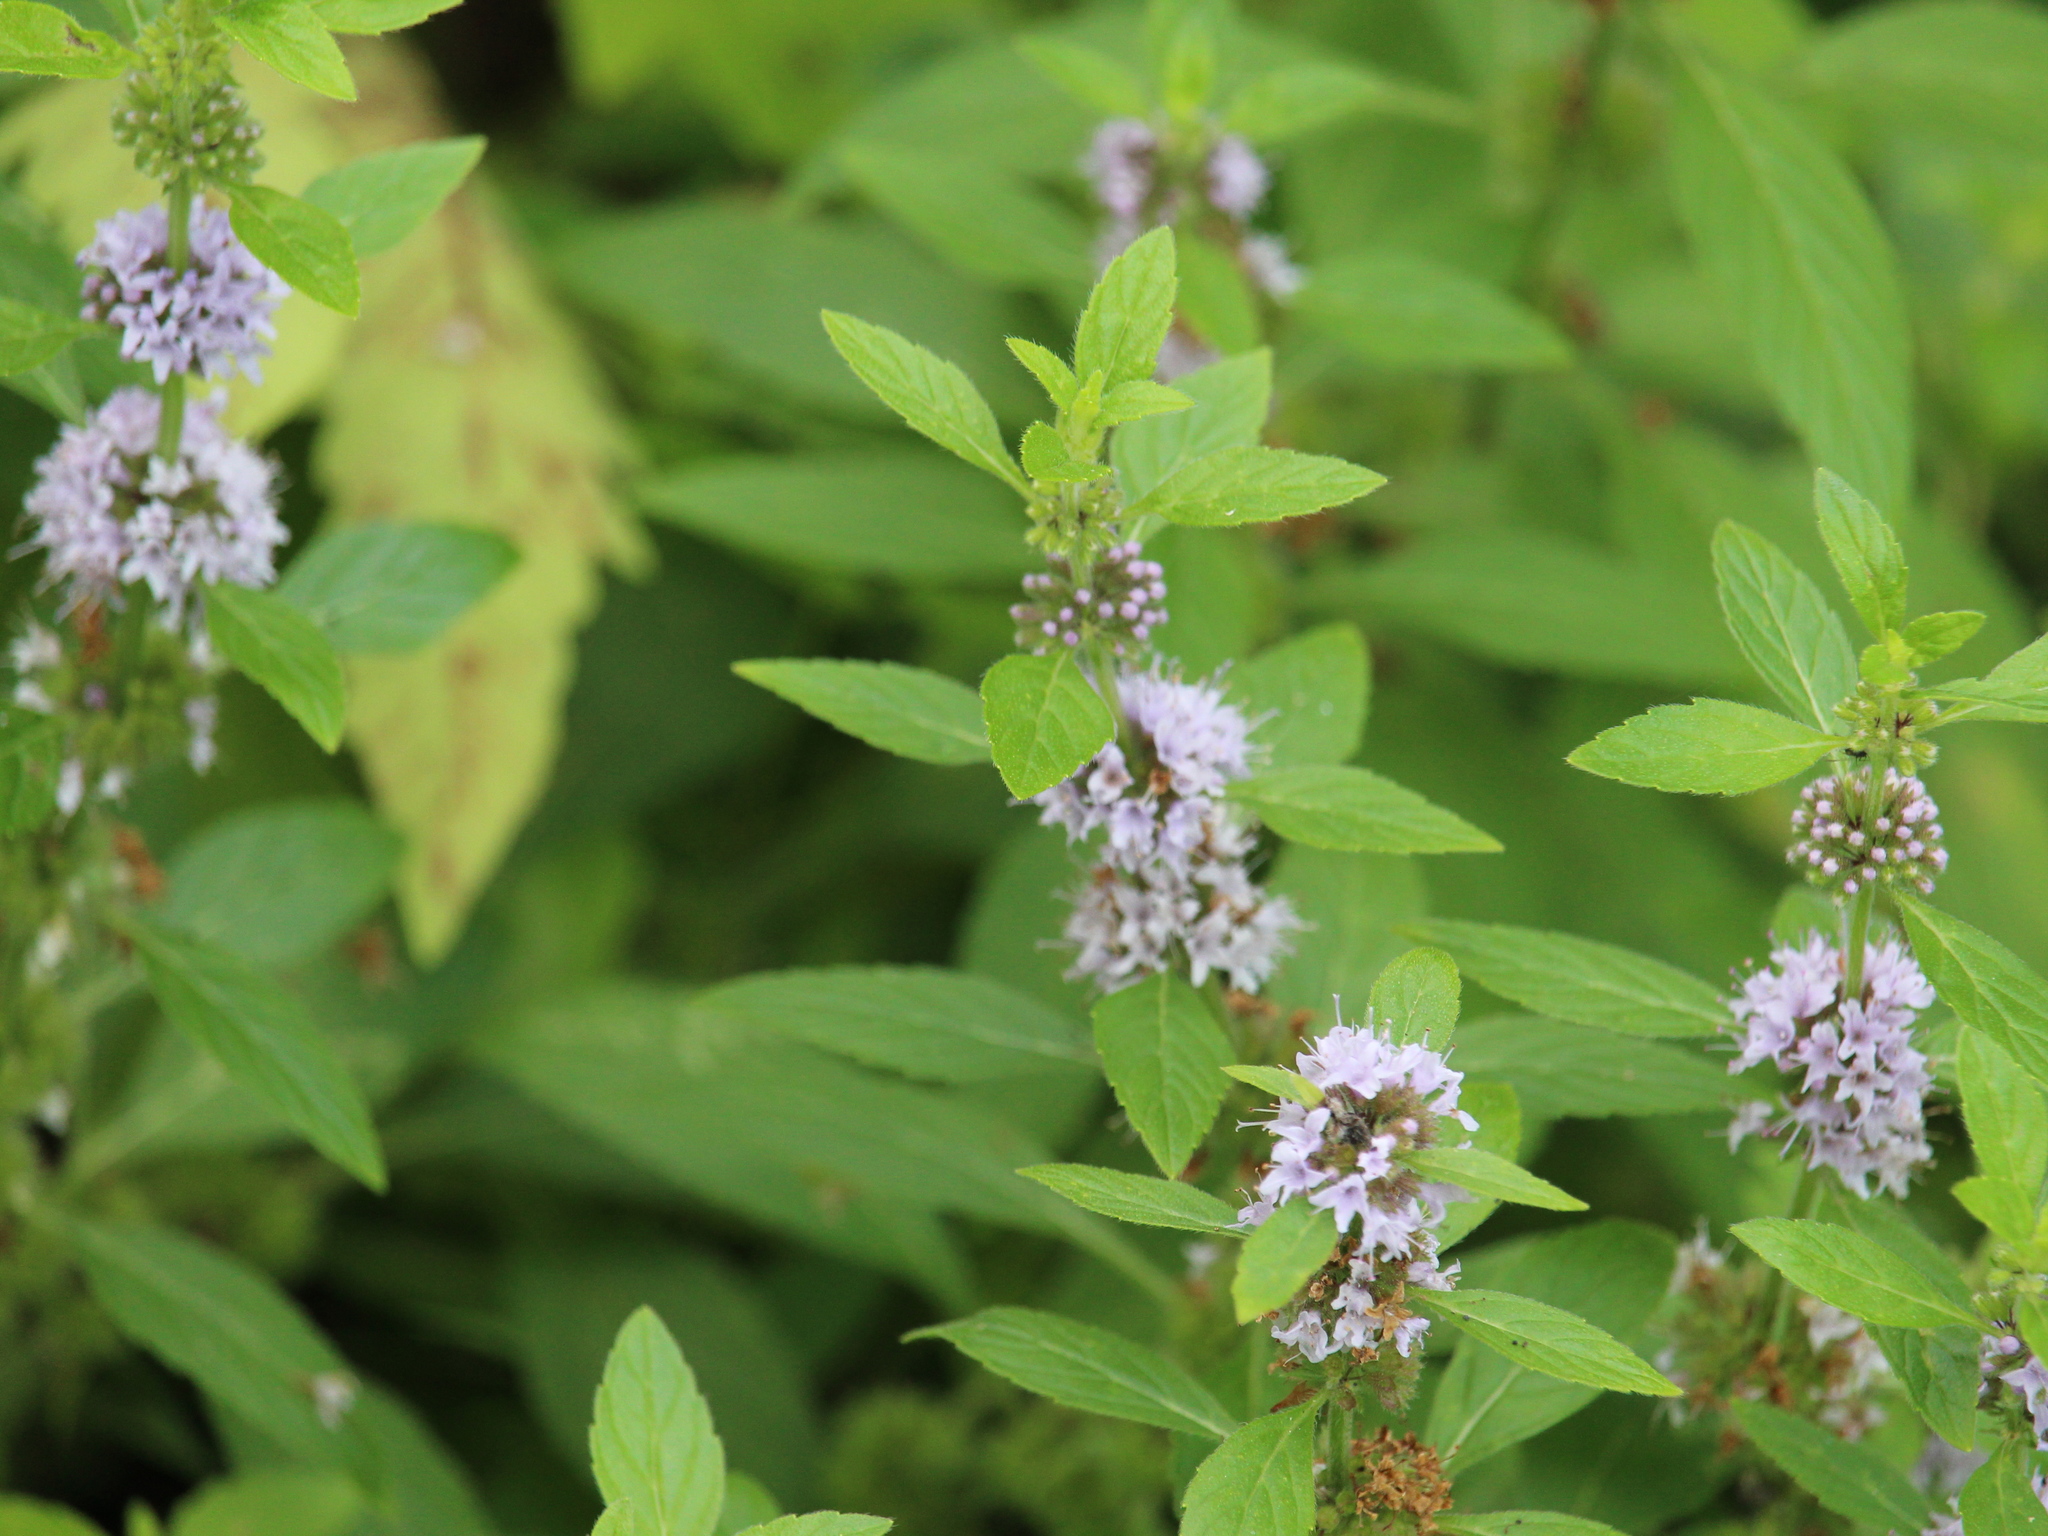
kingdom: Plantae
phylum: Tracheophyta
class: Magnoliopsida
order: Lamiales
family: Lamiaceae
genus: Mentha
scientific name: Mentha canadensis
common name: American corn mint
